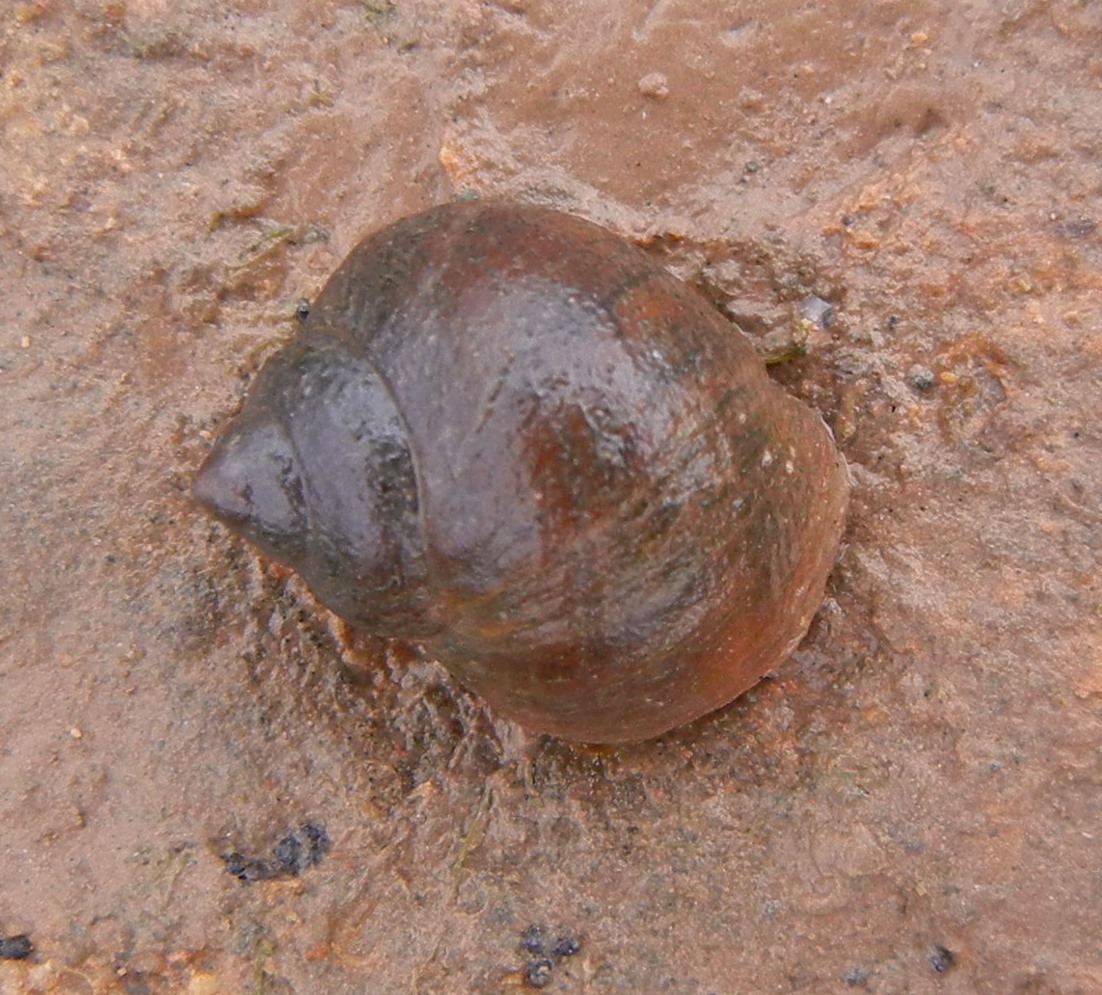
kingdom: Animalia
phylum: Mollusca
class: Gastropoda
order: Littorinimorpha
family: Littorinidae
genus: Littorina
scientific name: Littorina littorea
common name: Common periwinkle
